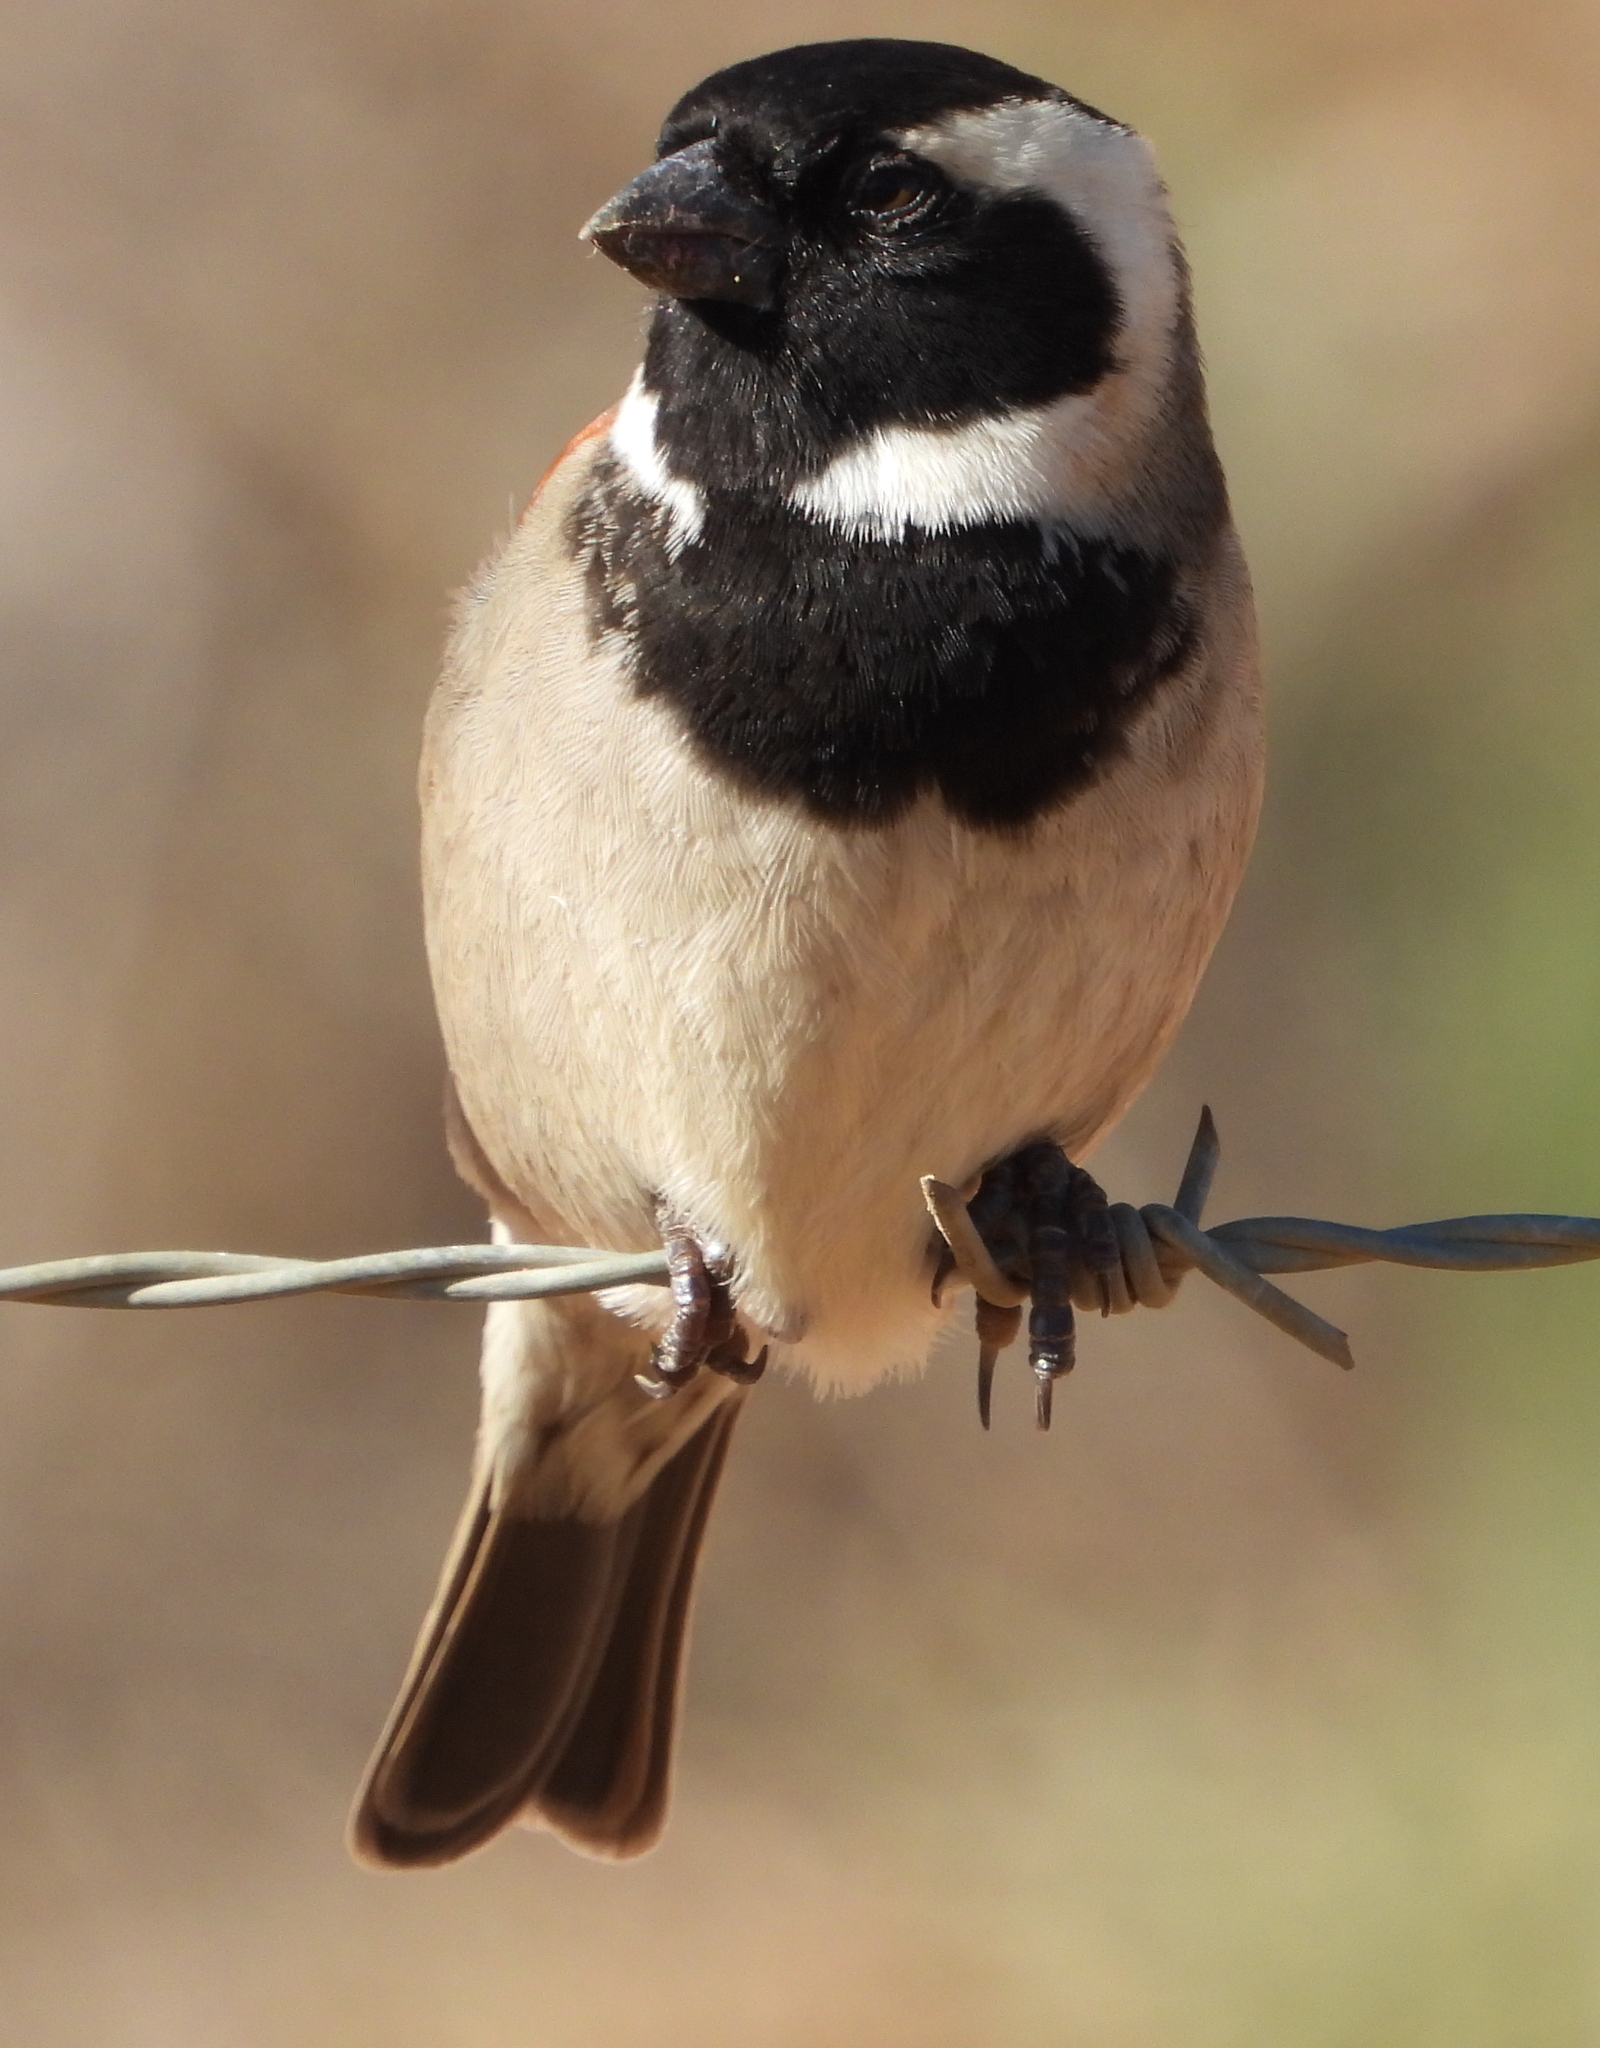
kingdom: Animalia
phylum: Chordata
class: Aves
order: Passeriformes
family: Passeridae
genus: Passer
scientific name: Passer melanurus
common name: Cape sparrow
